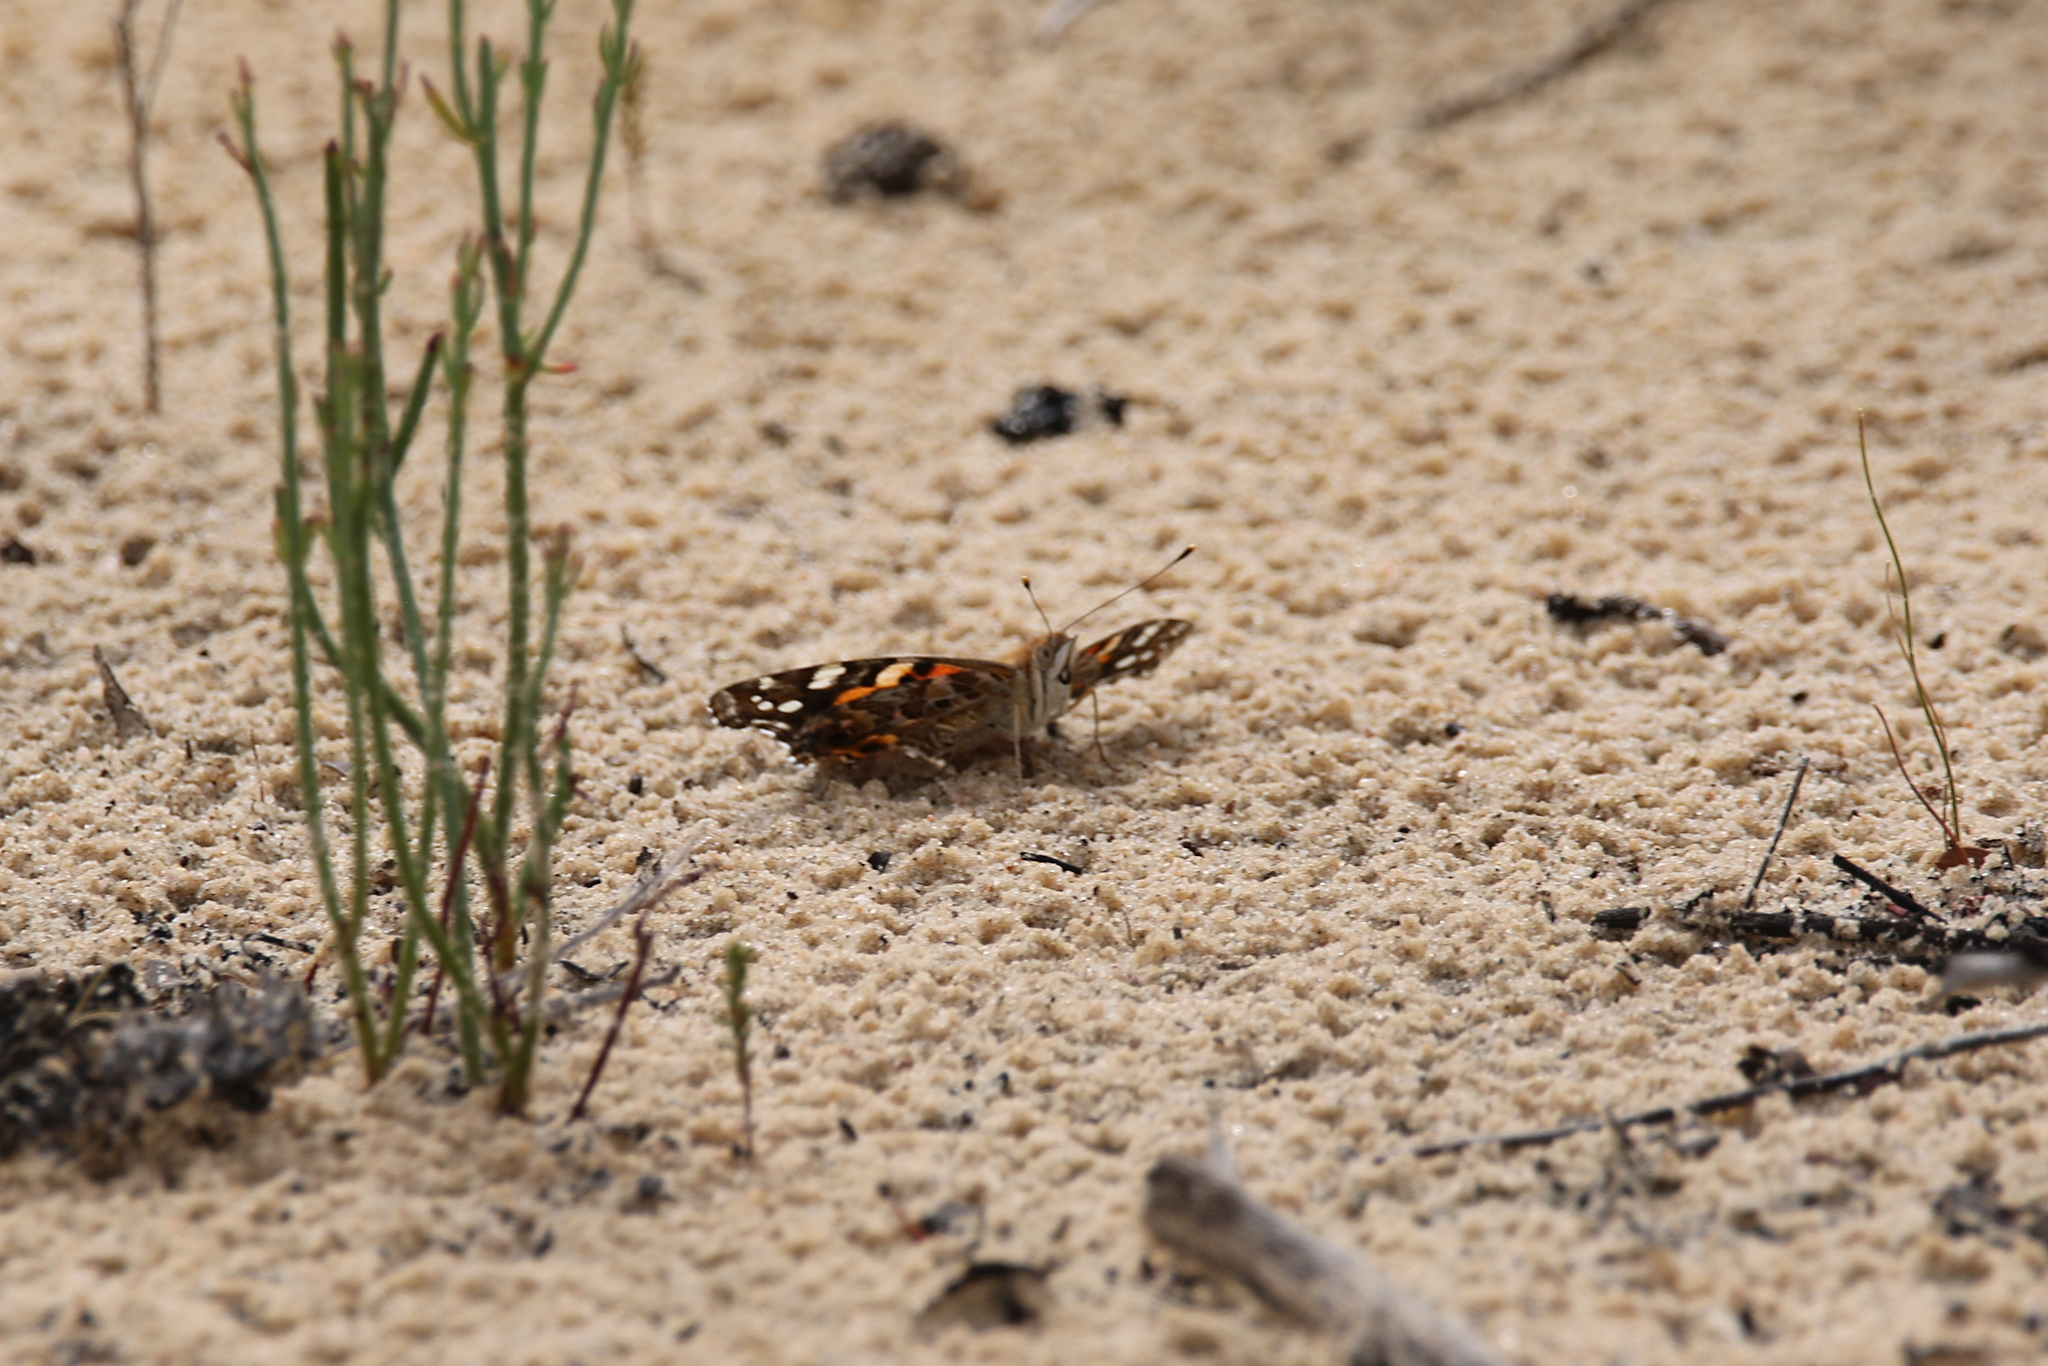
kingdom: Animalia
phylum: Arthropoda
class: Insecta
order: Lepidoptera
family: Nymphalidae
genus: Vanessa
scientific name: Vanessa kershawi
